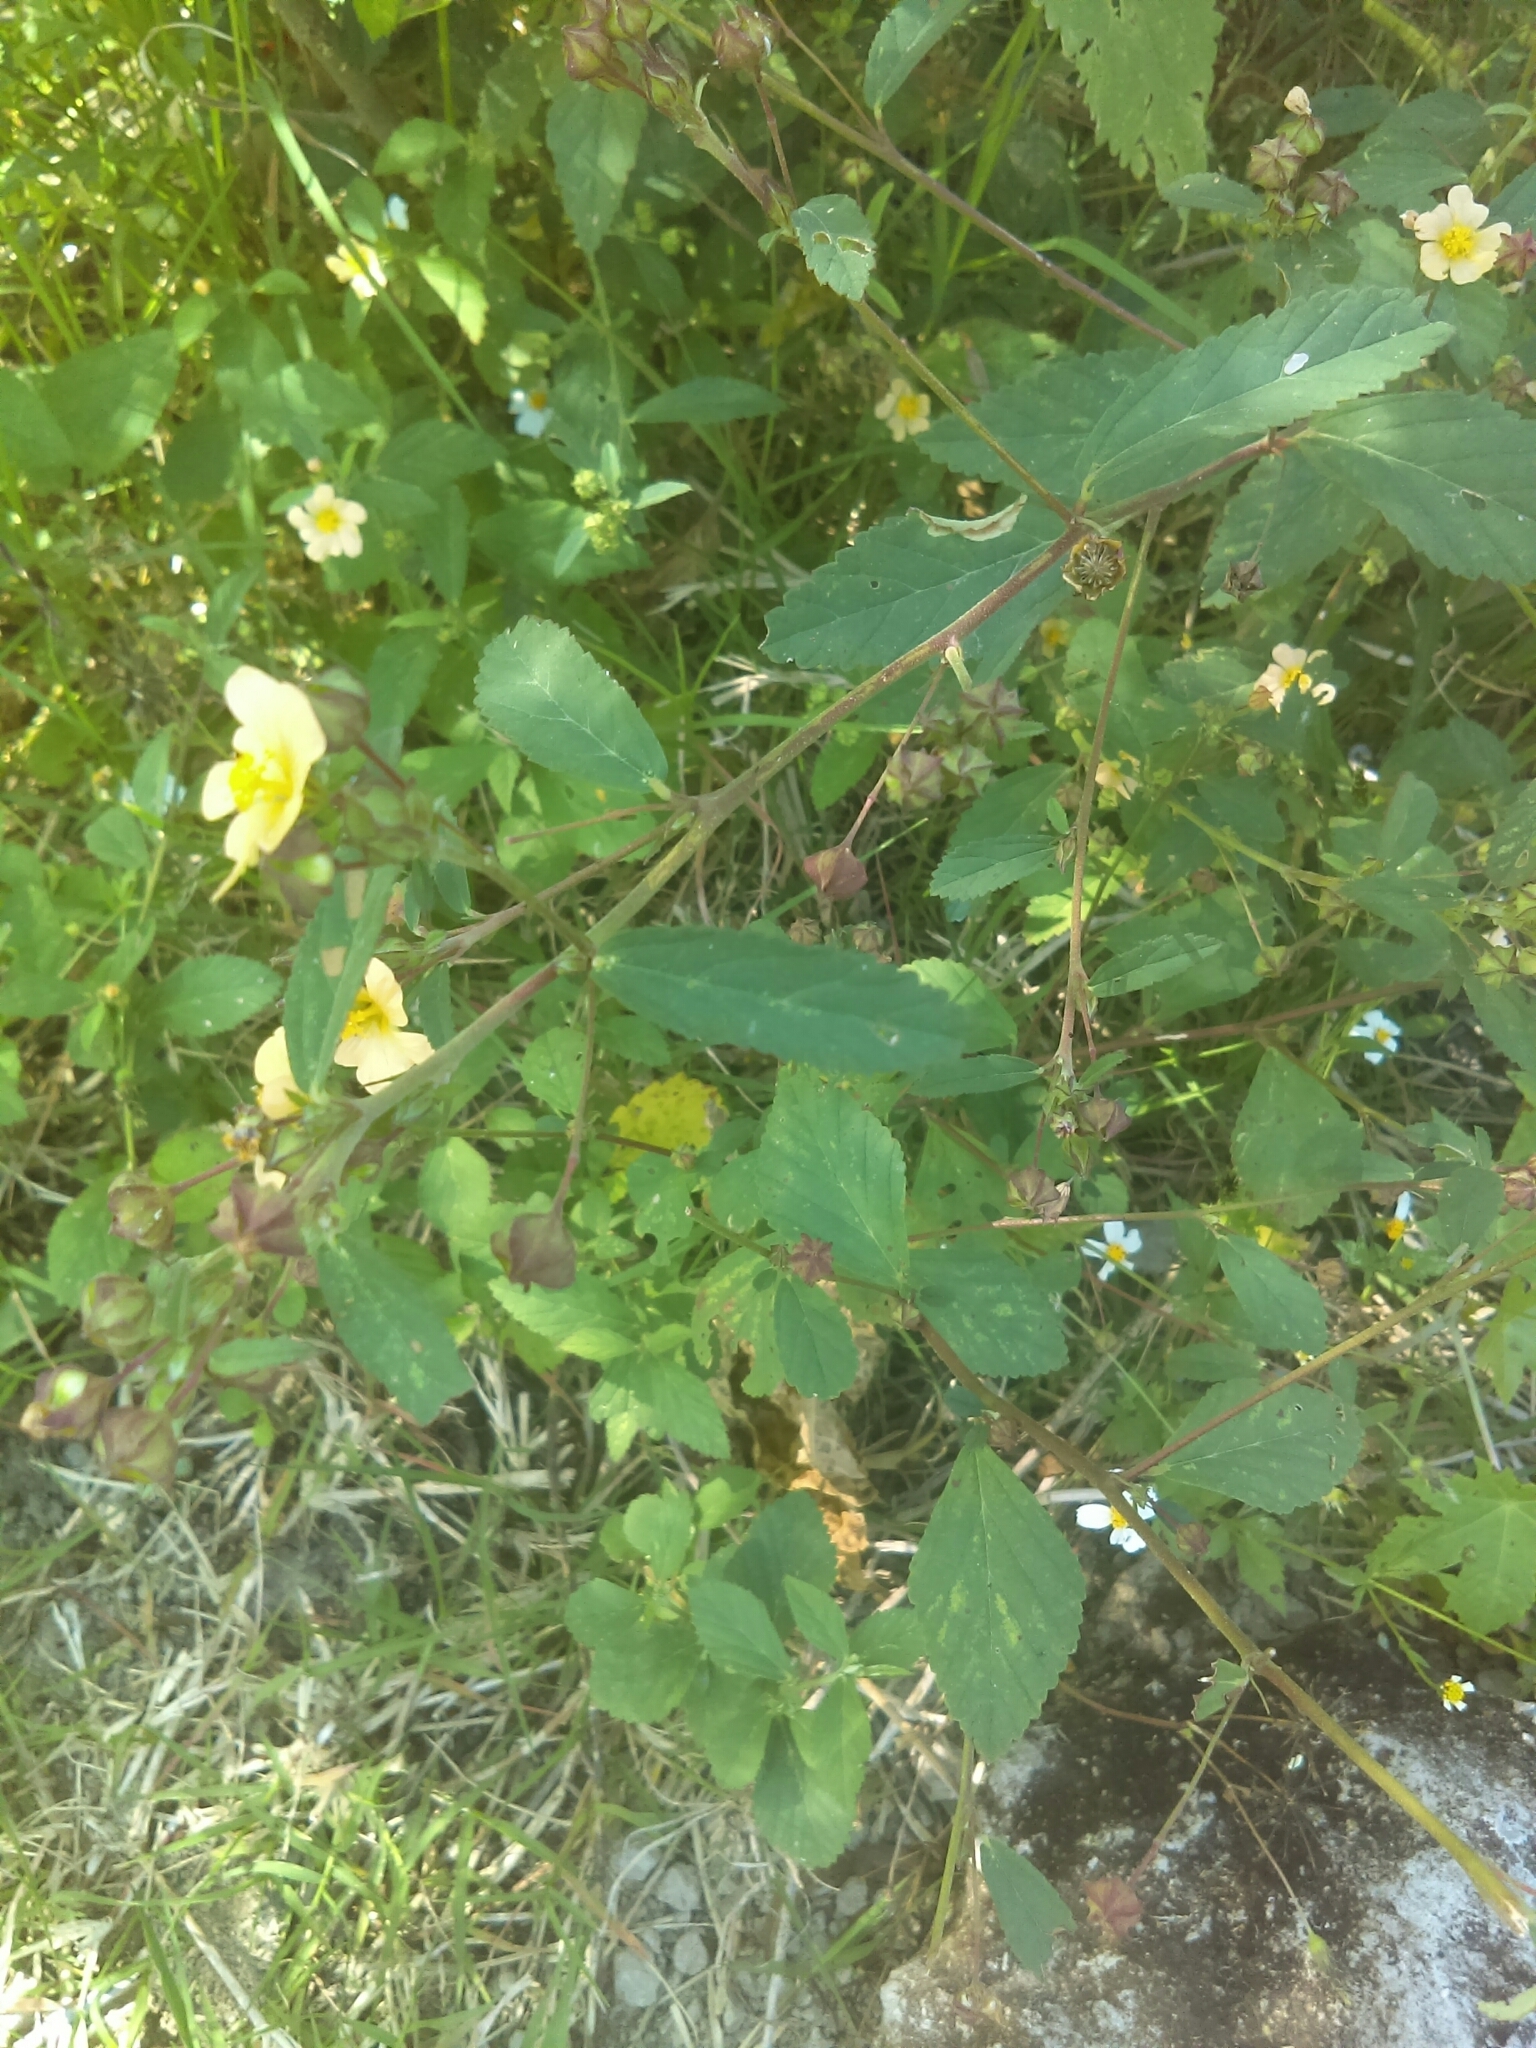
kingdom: Plantae
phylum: Tracheophyta
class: Magnoliopsida
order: Malvales
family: Malvaceae
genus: Sida
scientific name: Sida rhombifolia
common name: Queensland-hemp
